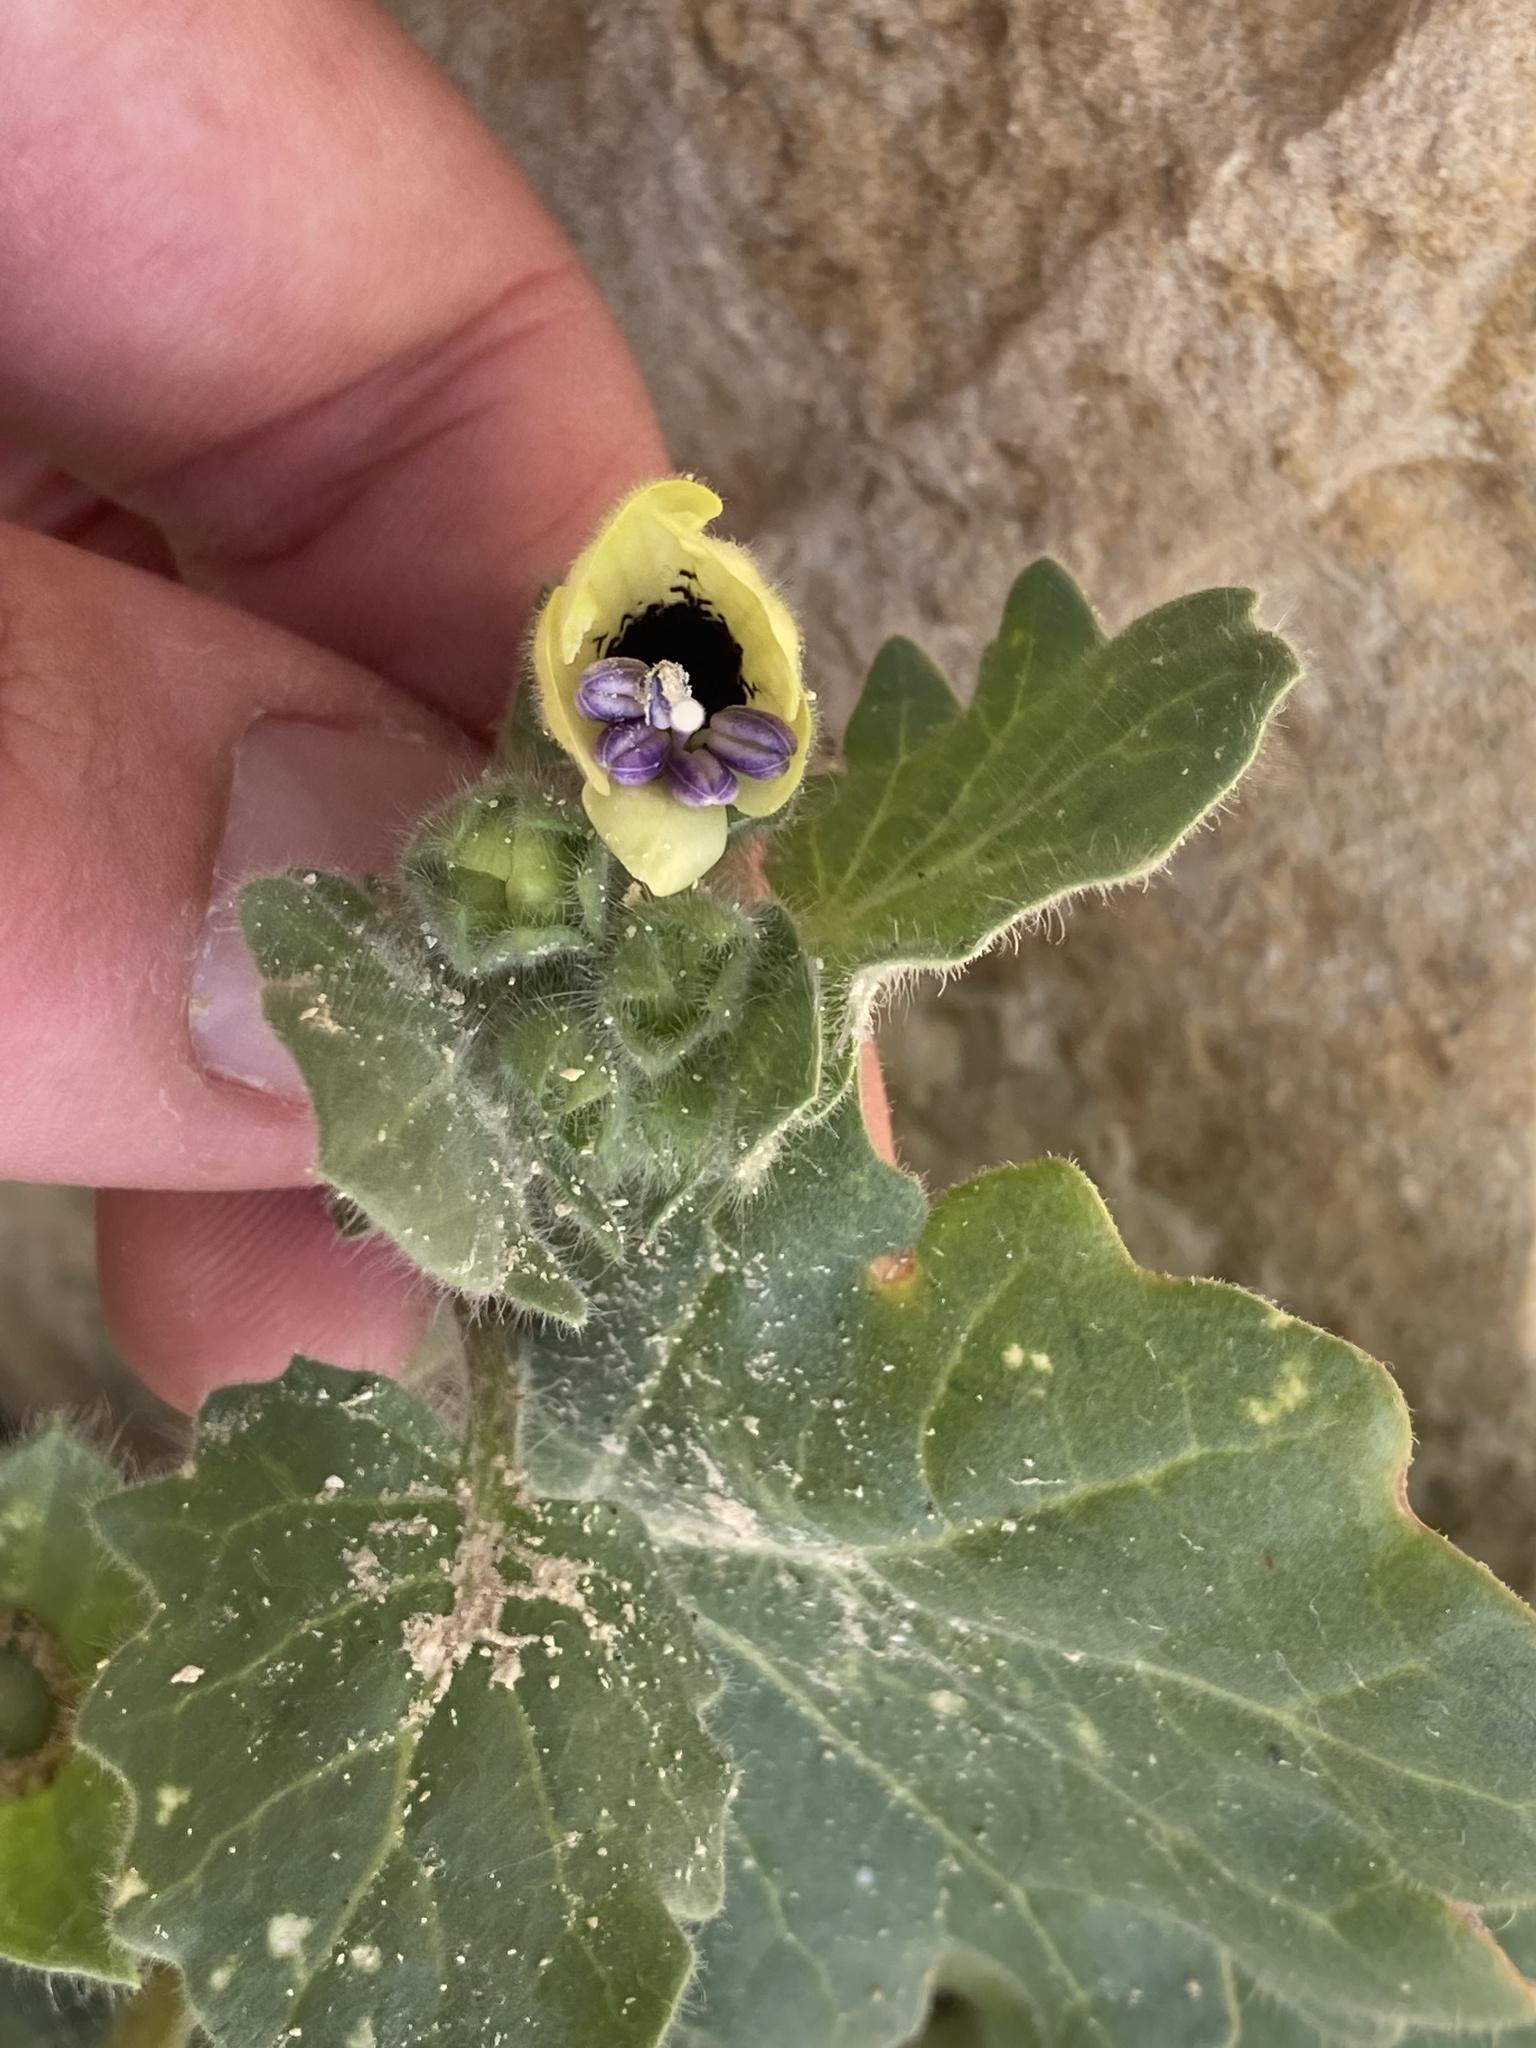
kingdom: Plantae
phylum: Tracheophyta
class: Magnoliopsida
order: Solanales
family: Solanaceae
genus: Hyoscyamus
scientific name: Hyoscyamus albus
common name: White henbane
